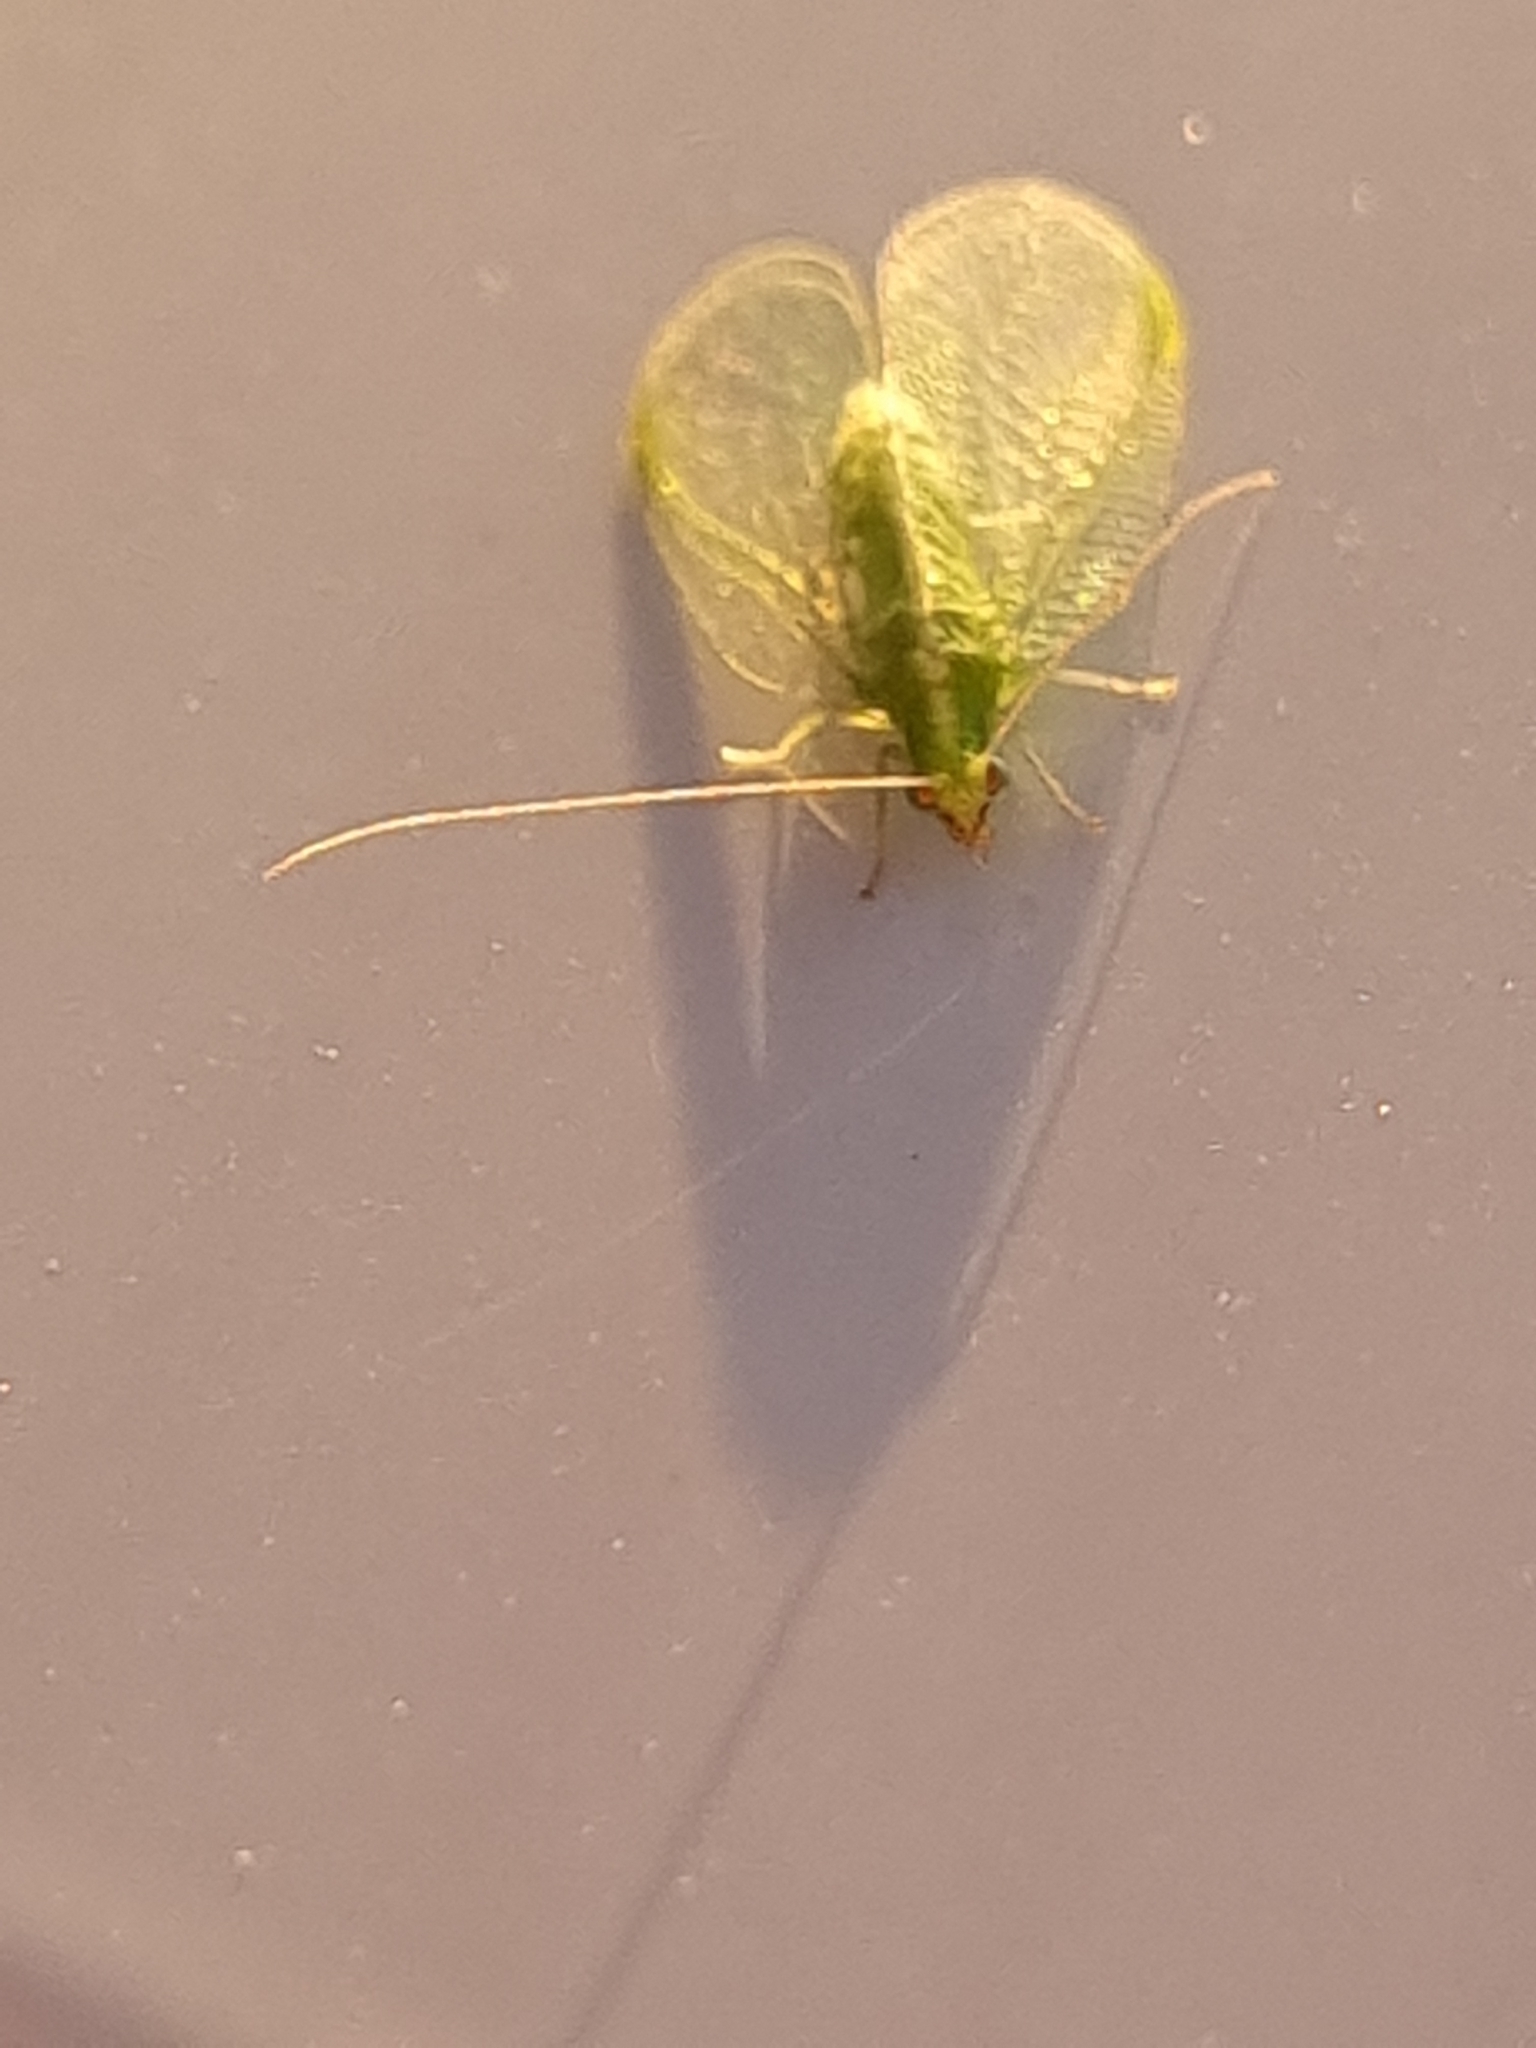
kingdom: Animalia
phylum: Arthropoda
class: Insecta
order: Neuroptera
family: Chrysopidae
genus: Chrysoperla
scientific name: Chrysoperla
